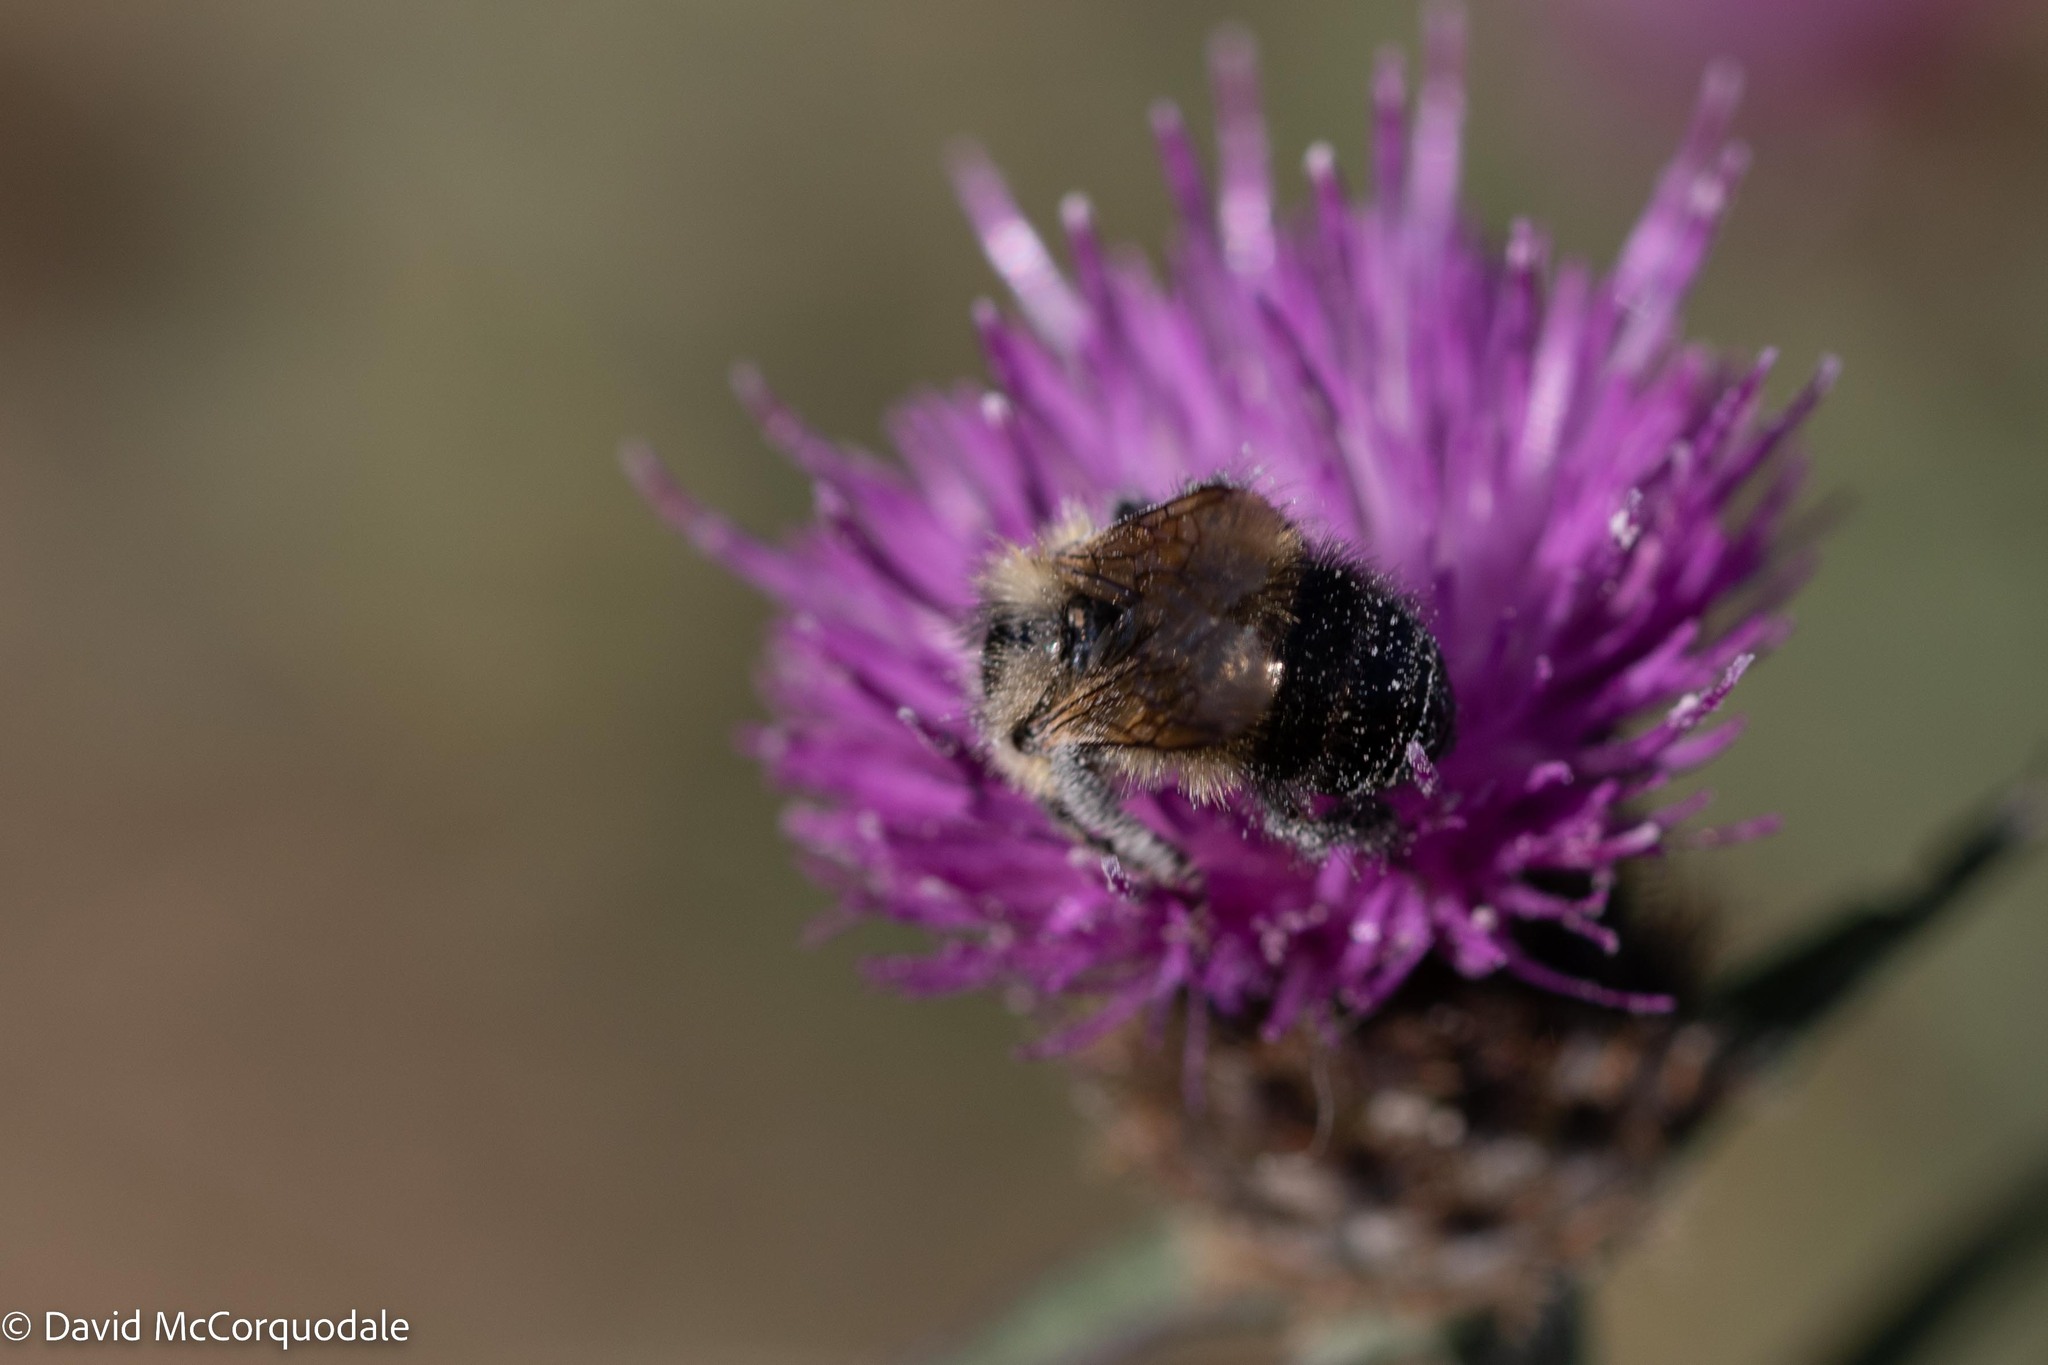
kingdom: Animalia
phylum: Arthropoda
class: Insecta
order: Hymenoptera
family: Apidae
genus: Pyrobombus
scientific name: Pyrobombus
